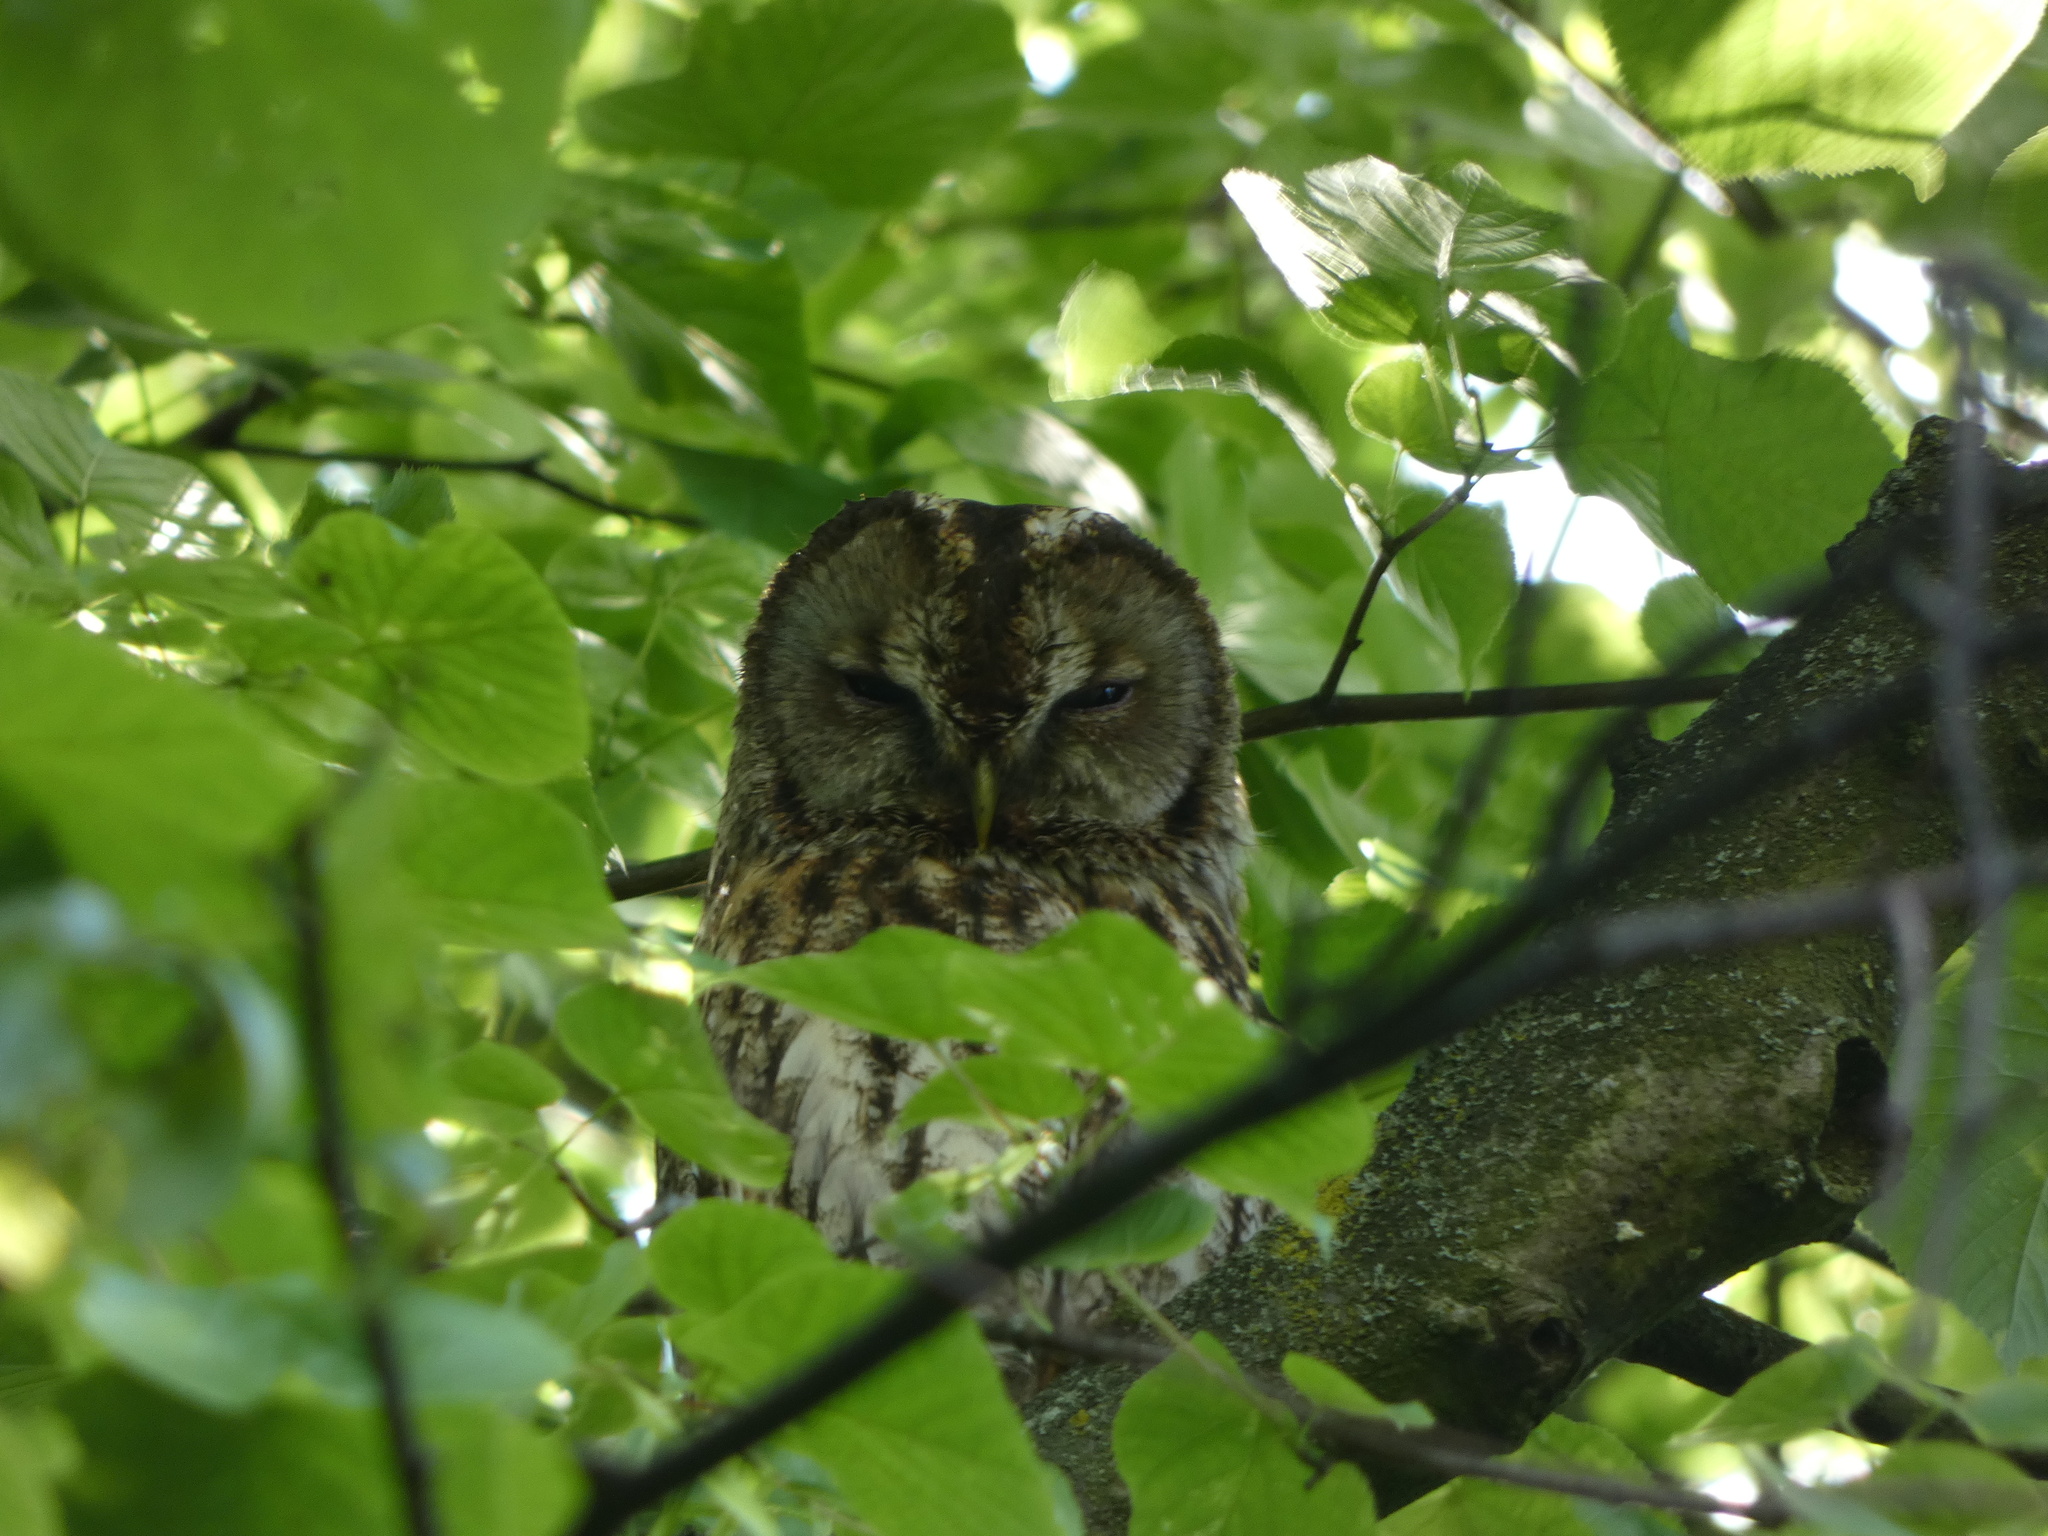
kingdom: Animalia
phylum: Chordata
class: Aves
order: Strigiformes
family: Strigidae
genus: Strix
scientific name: Strix aluco
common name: Tawny owl
